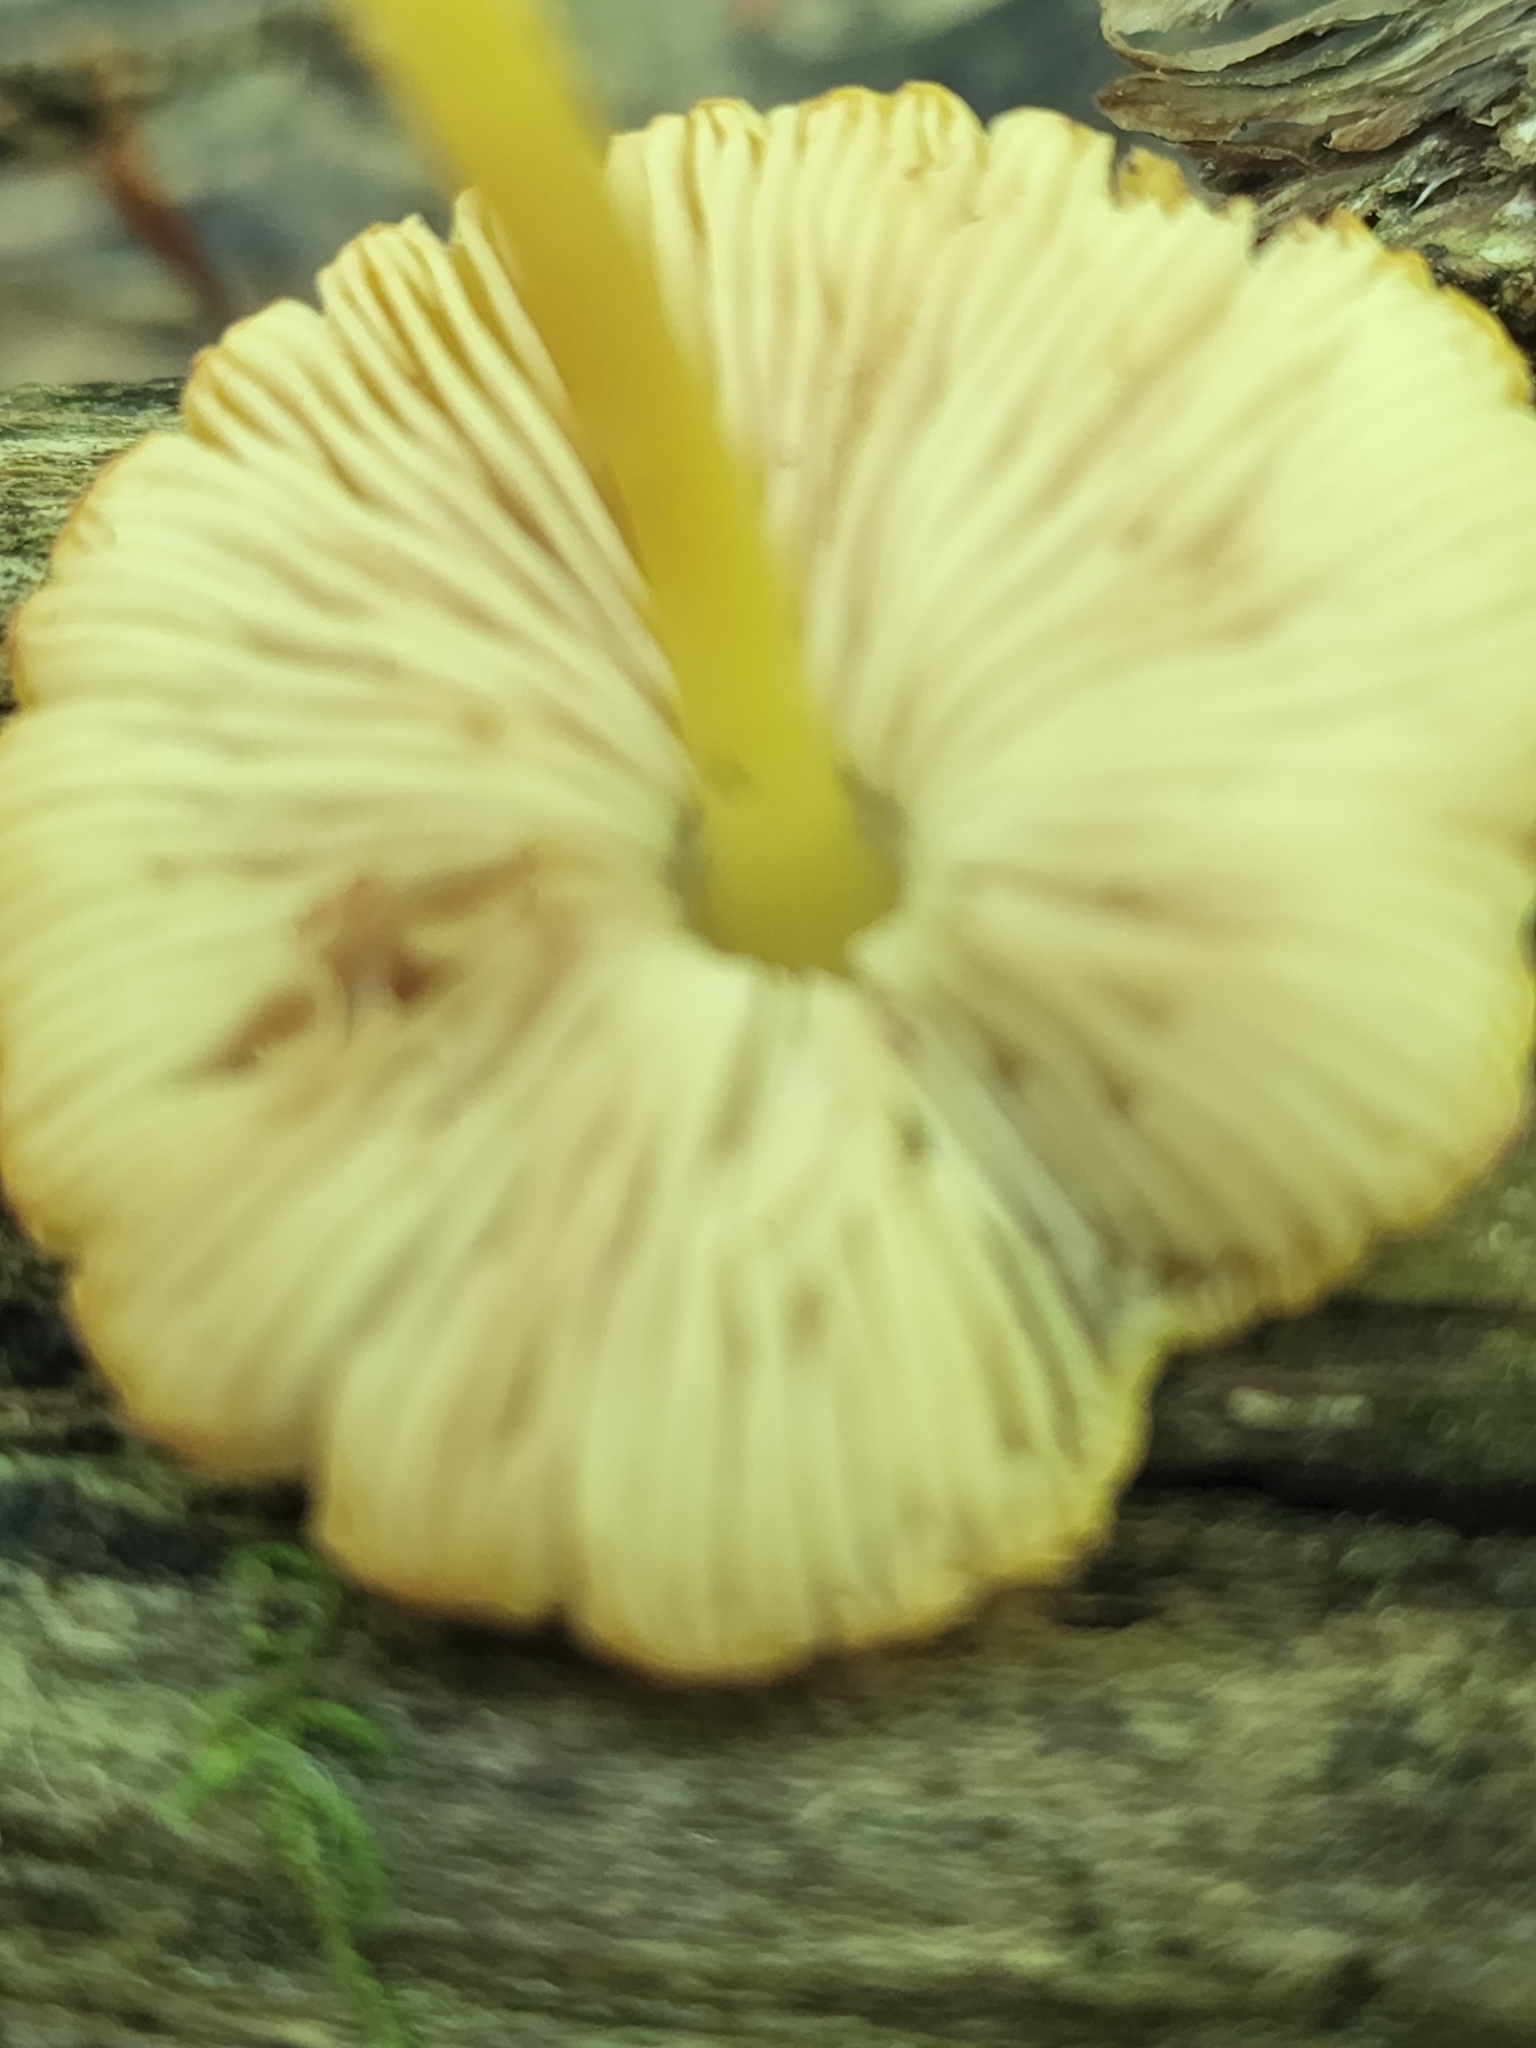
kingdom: Fungi
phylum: Basidiomycota
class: Agaricomycetes
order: Agaricales
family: Pluteaceae
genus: Pluteus
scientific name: Pluteus chrysophlebius
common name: Yellow deer mushroom
